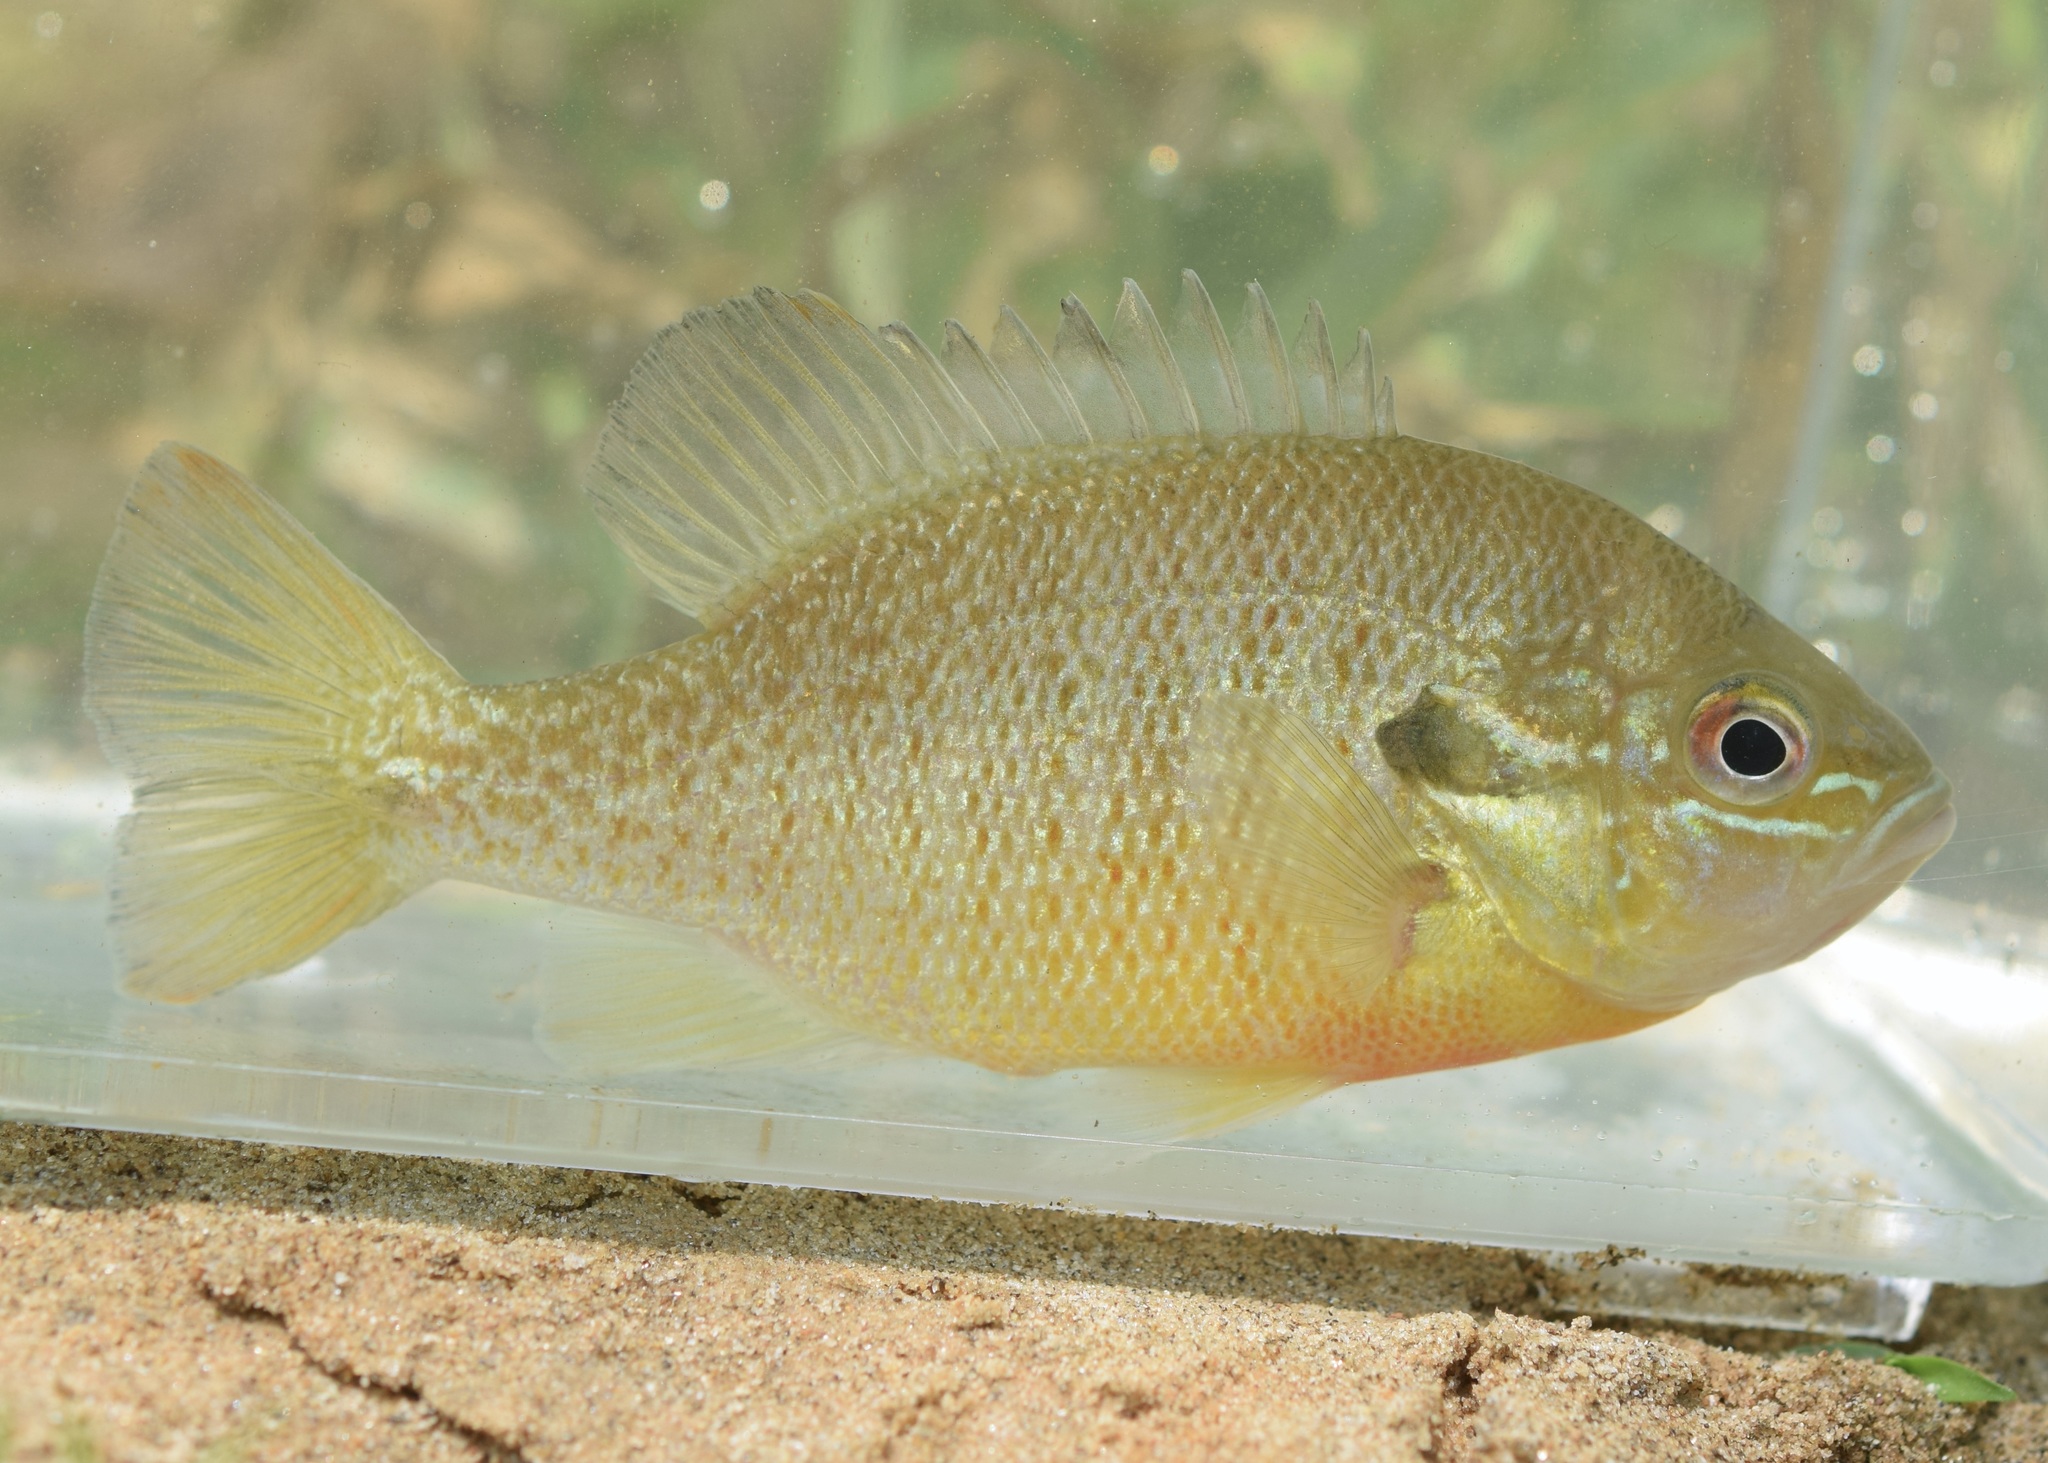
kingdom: Animalia
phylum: Chordata
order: Perciformes
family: Centrarchidae
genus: Lepomis
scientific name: Lepomis auritus
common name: Redbreast sunfish
